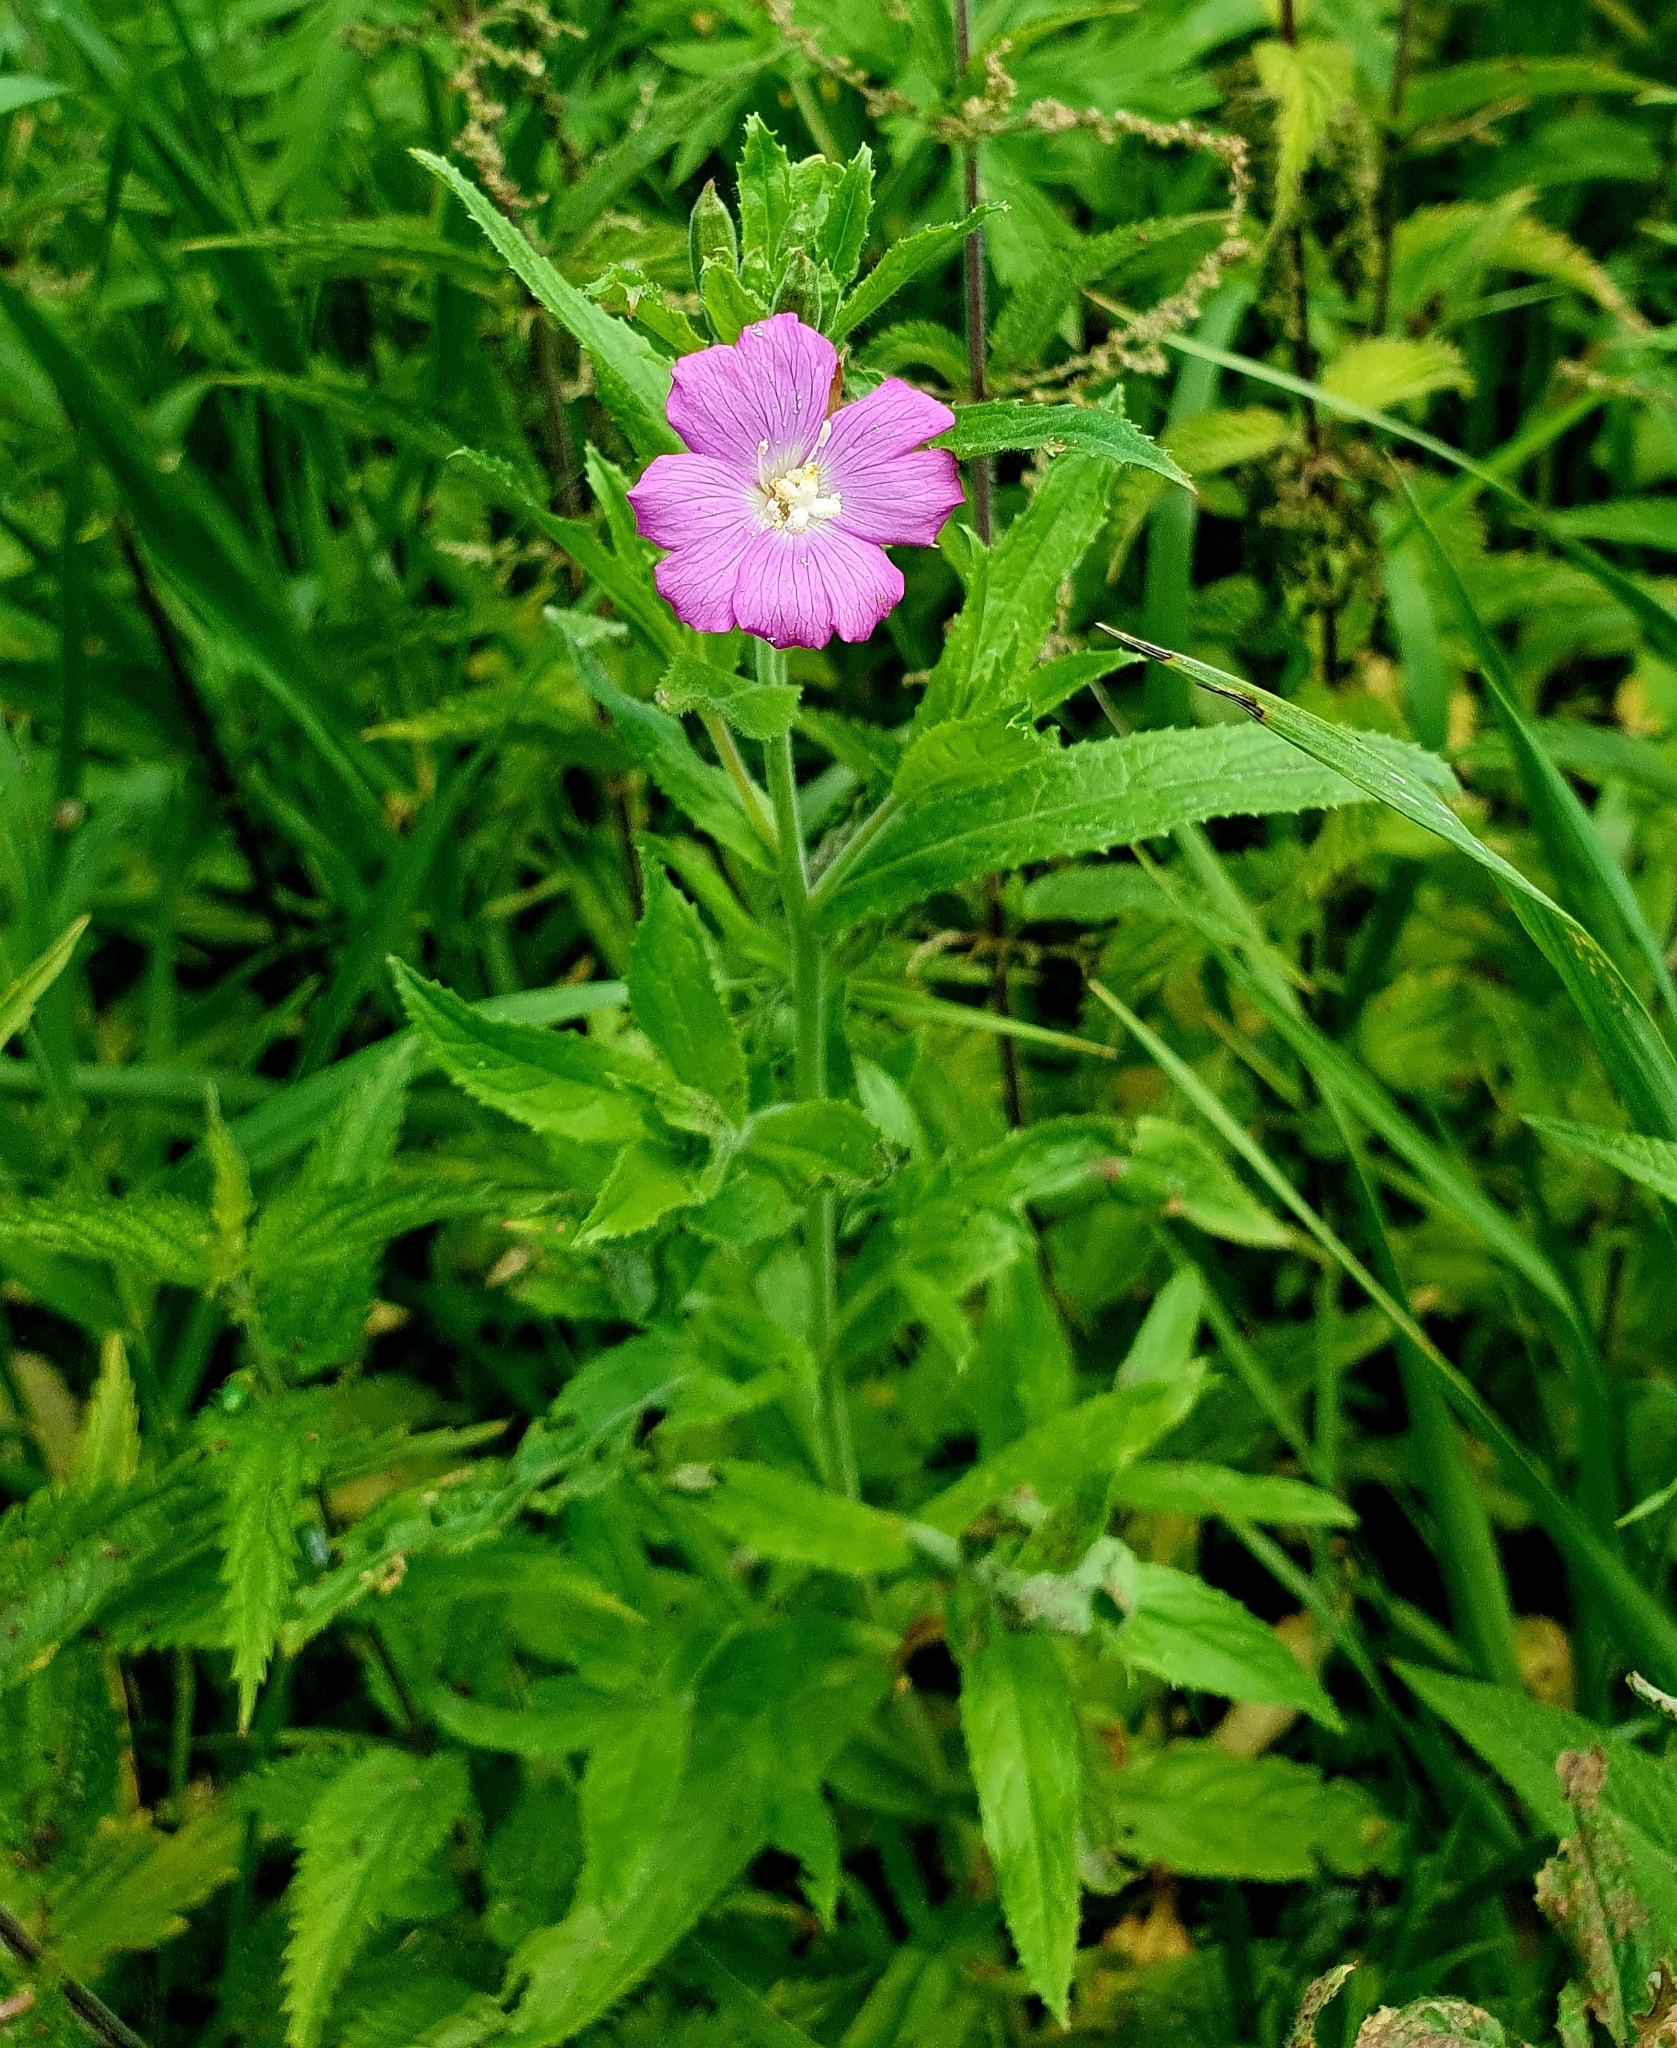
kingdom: Plantae
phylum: Tracheophyta
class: Magnoliopsida
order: Myrtales
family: Onagraceae
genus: Epilobium
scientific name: Epilobium hirsutum
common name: Great willowherb
